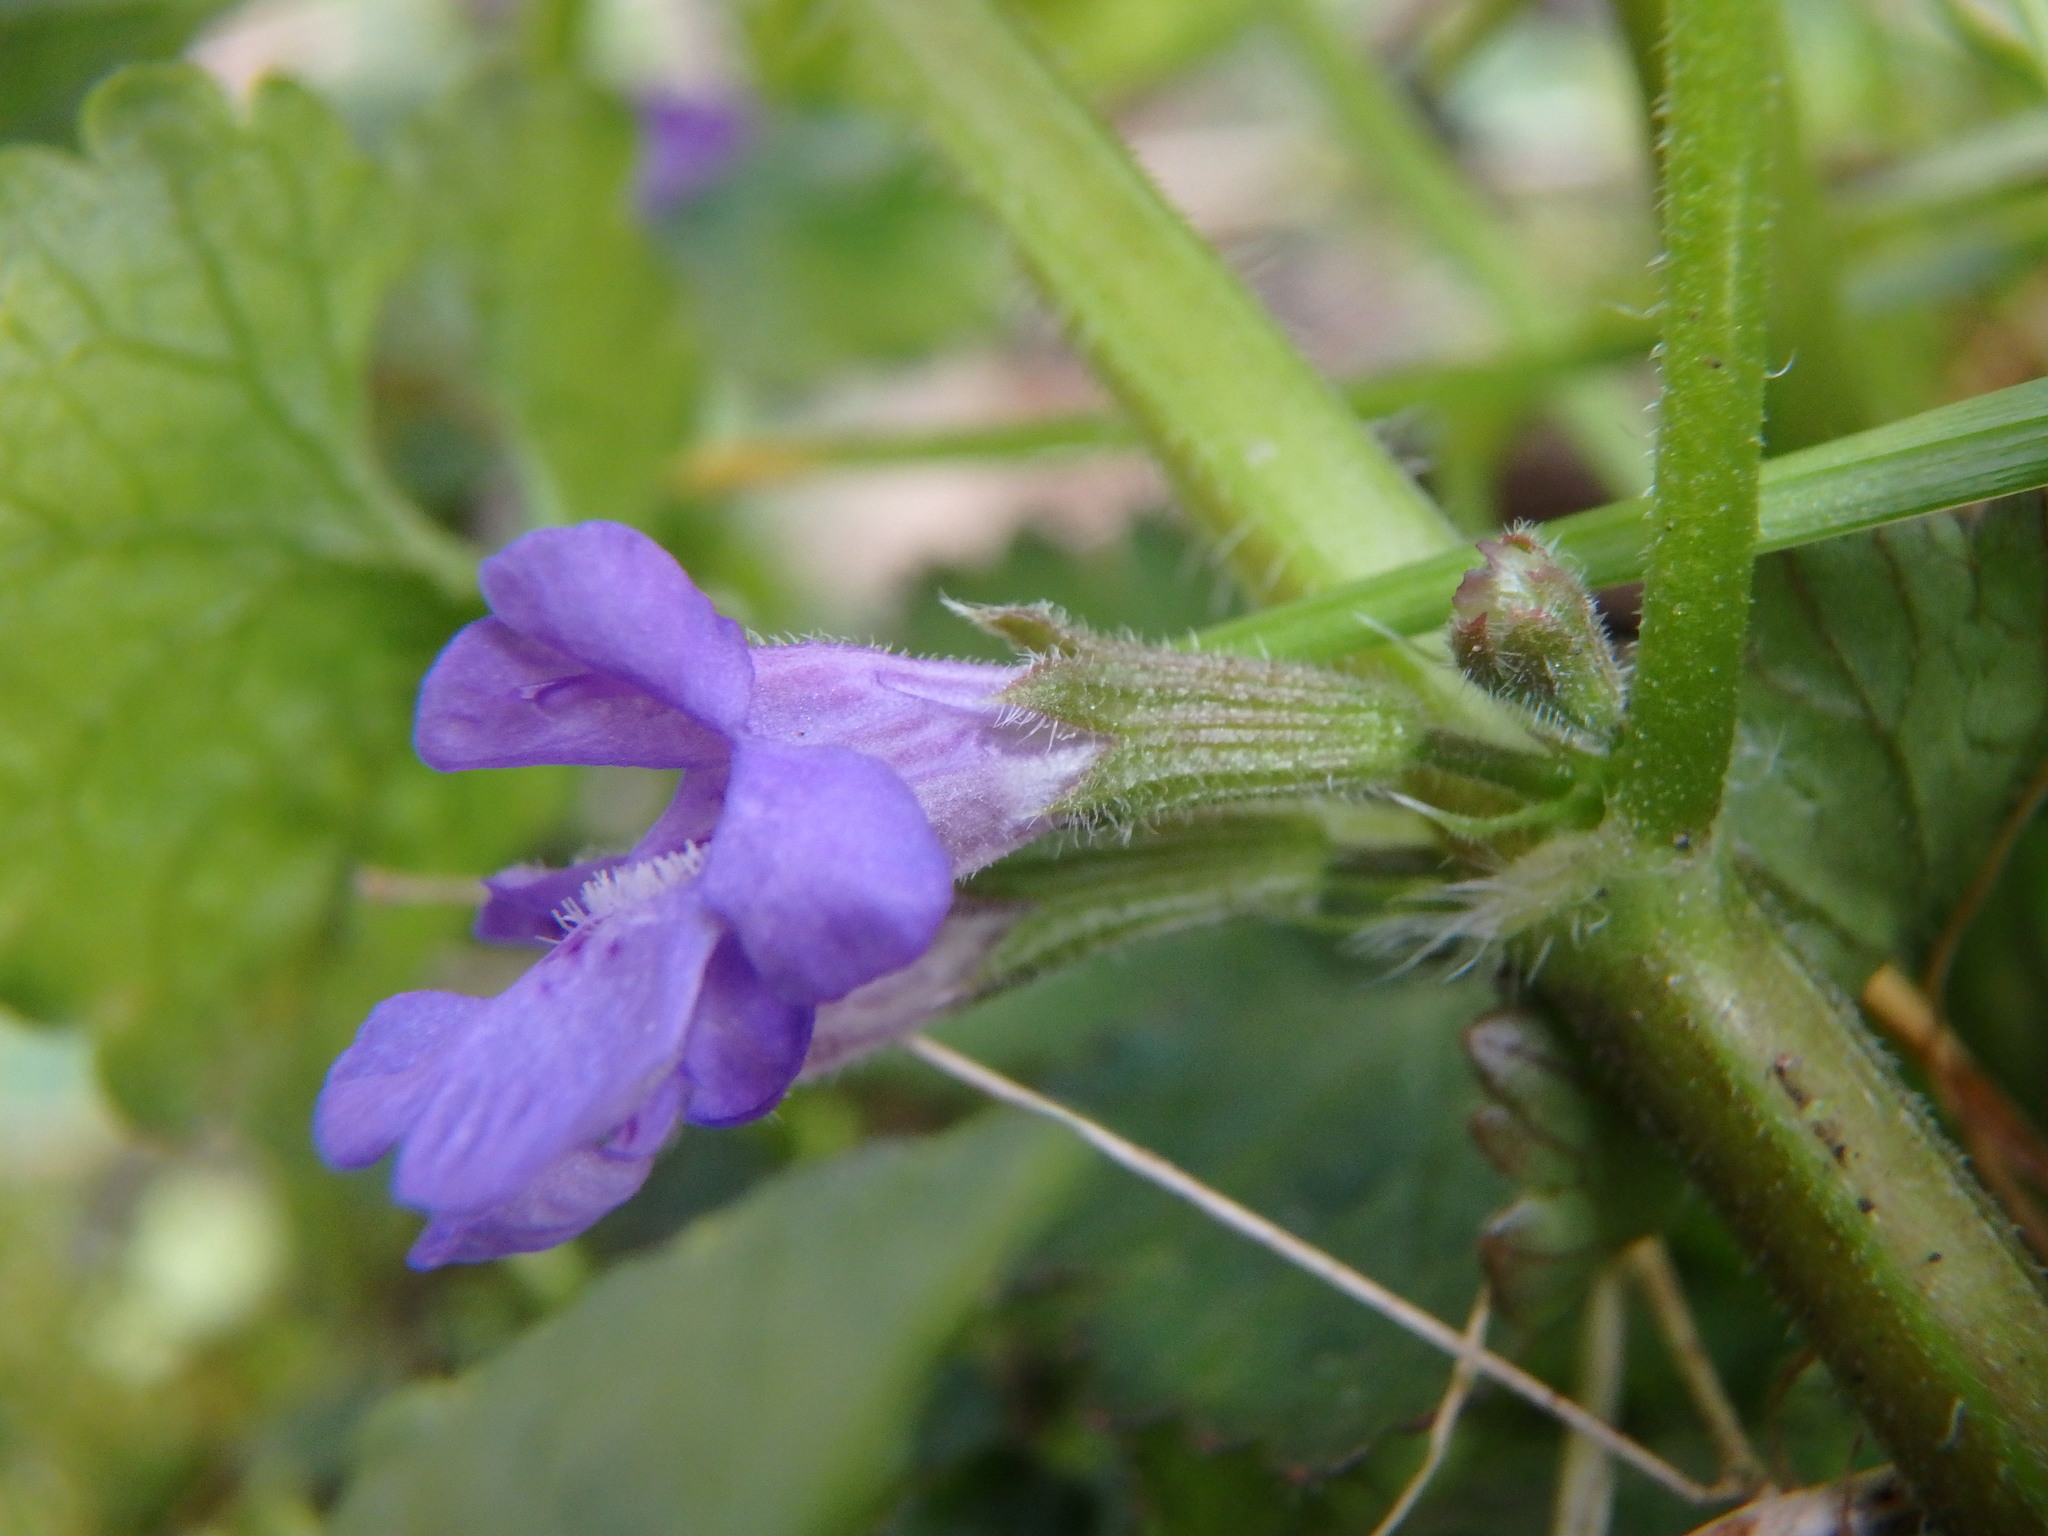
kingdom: Plantae
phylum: Tracheophyta
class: Magnoliopsida
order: Lamiales
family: Lamiaceae
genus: Glechoma
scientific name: Glechoma hederacea
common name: Ground ivy
